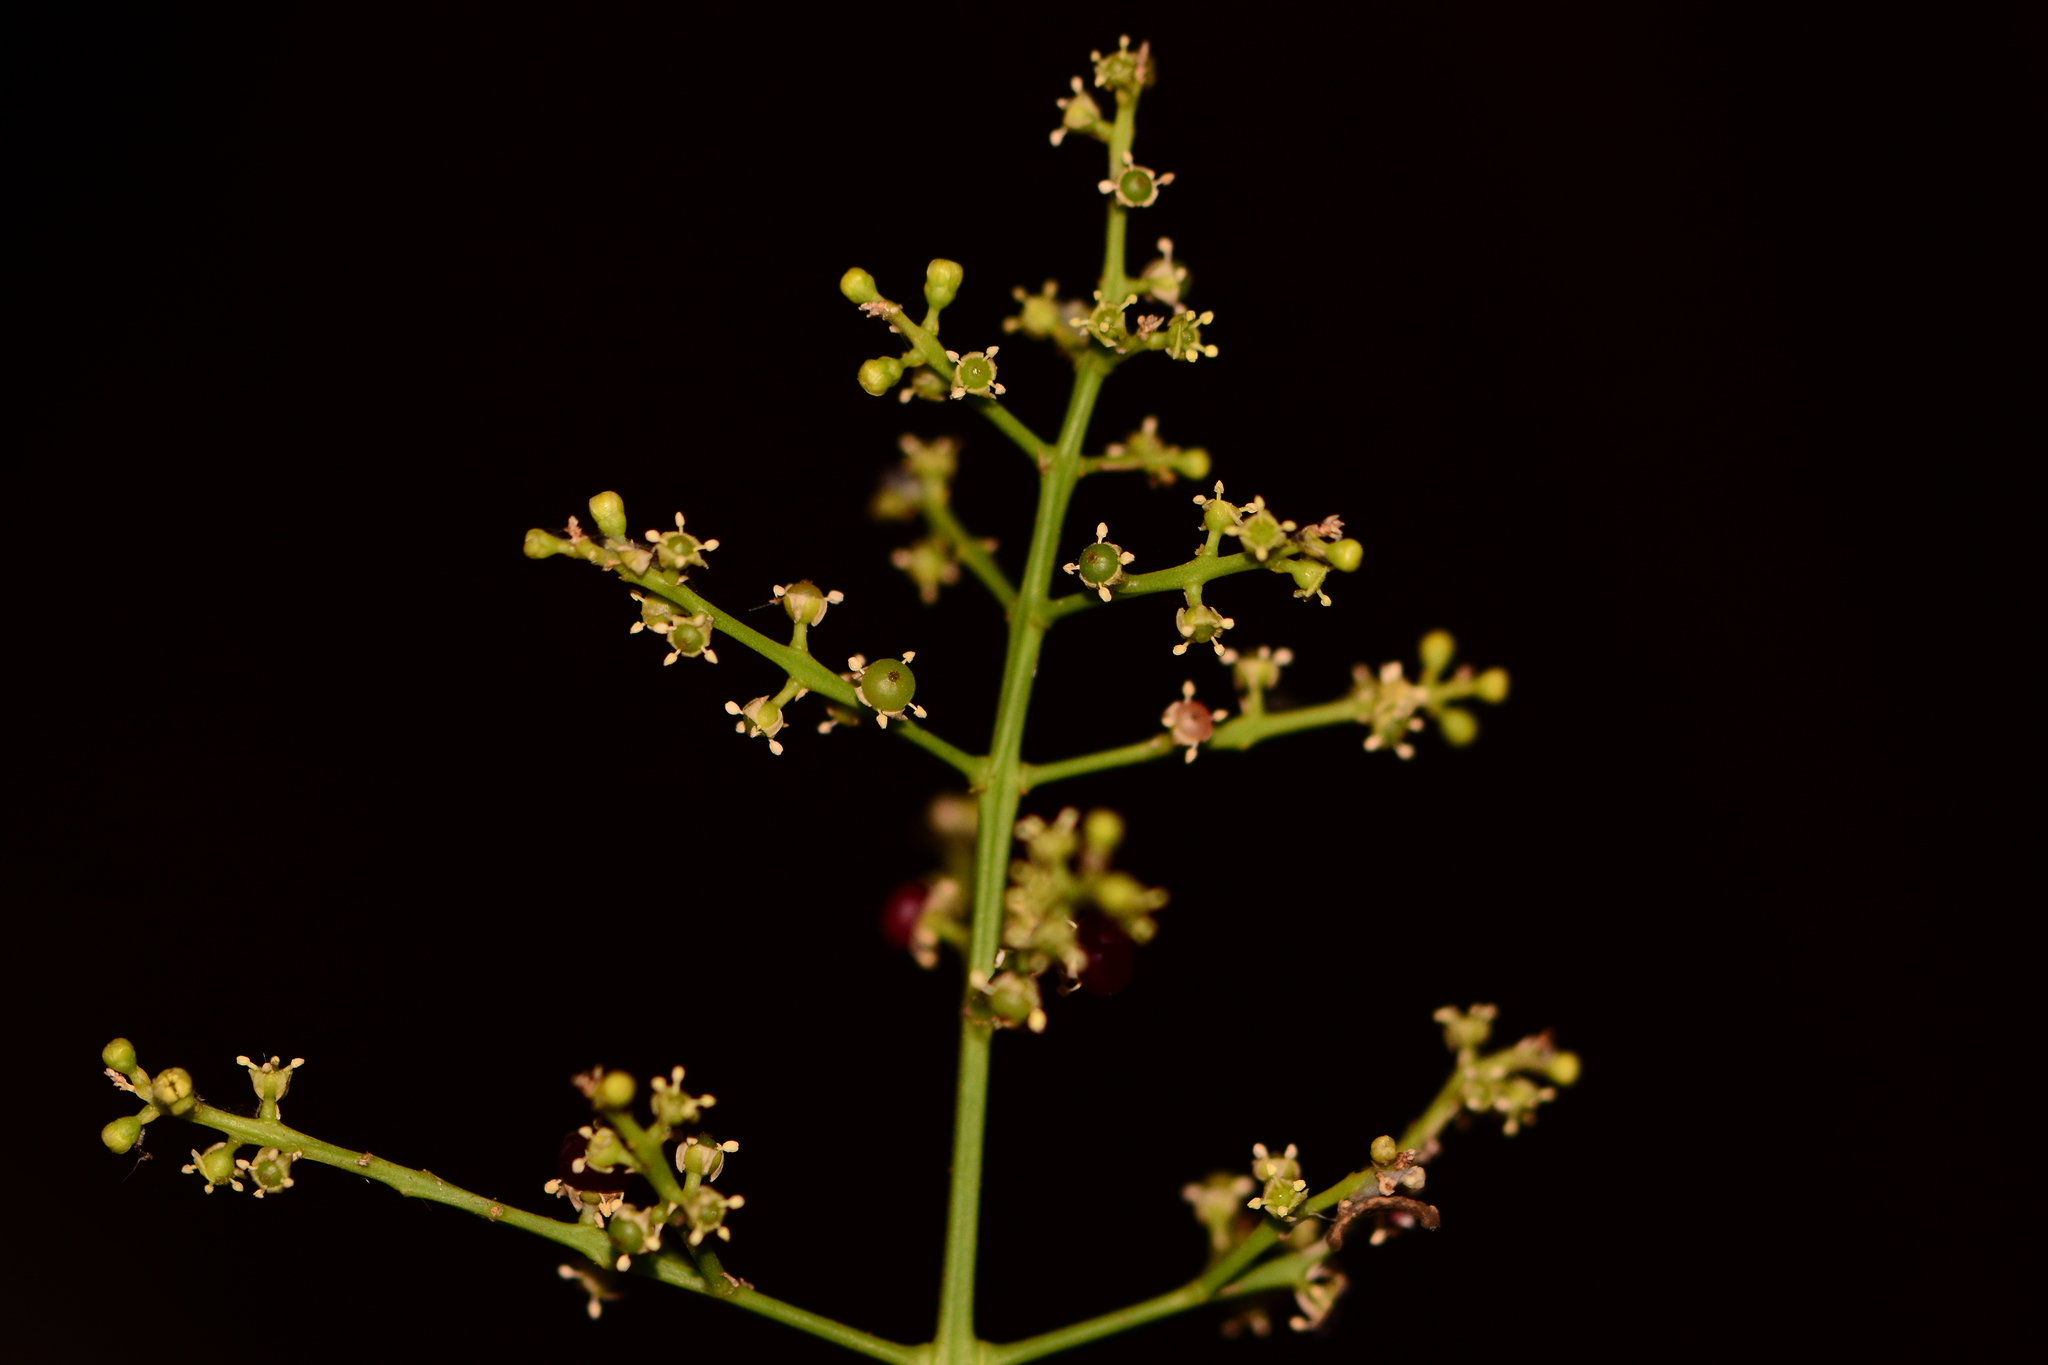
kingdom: Plantae
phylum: Tracheophyta
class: Magnoliopsida
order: Brassicales
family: Salvadoraceae
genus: Salvadora
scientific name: Salvadora persica
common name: Toothbrushtree
